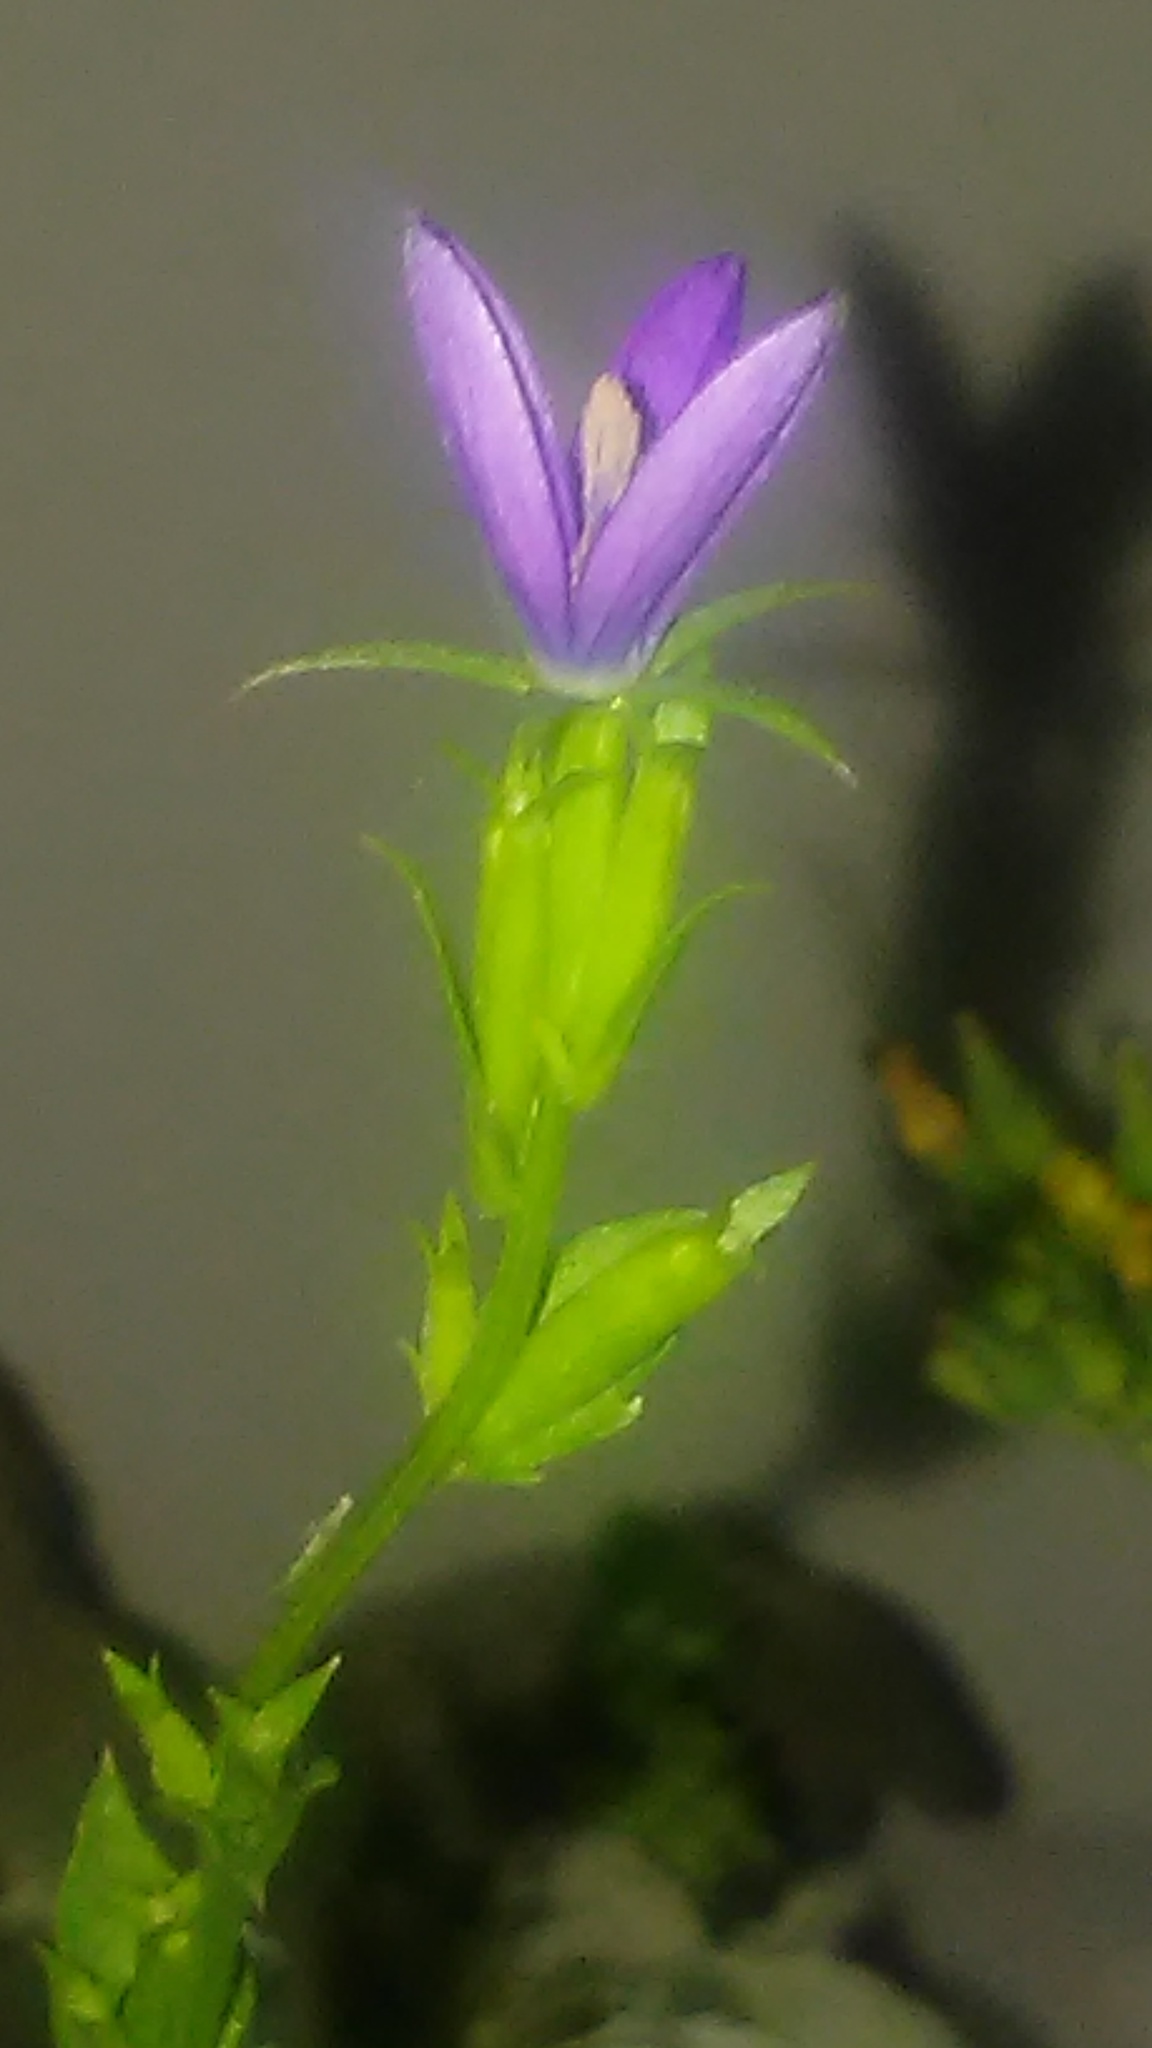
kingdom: Plantae
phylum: Tracheophyta
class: Magnoliopsida
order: Asterales
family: Campanulaceae
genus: Triodanis
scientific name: Triodanis biflora
